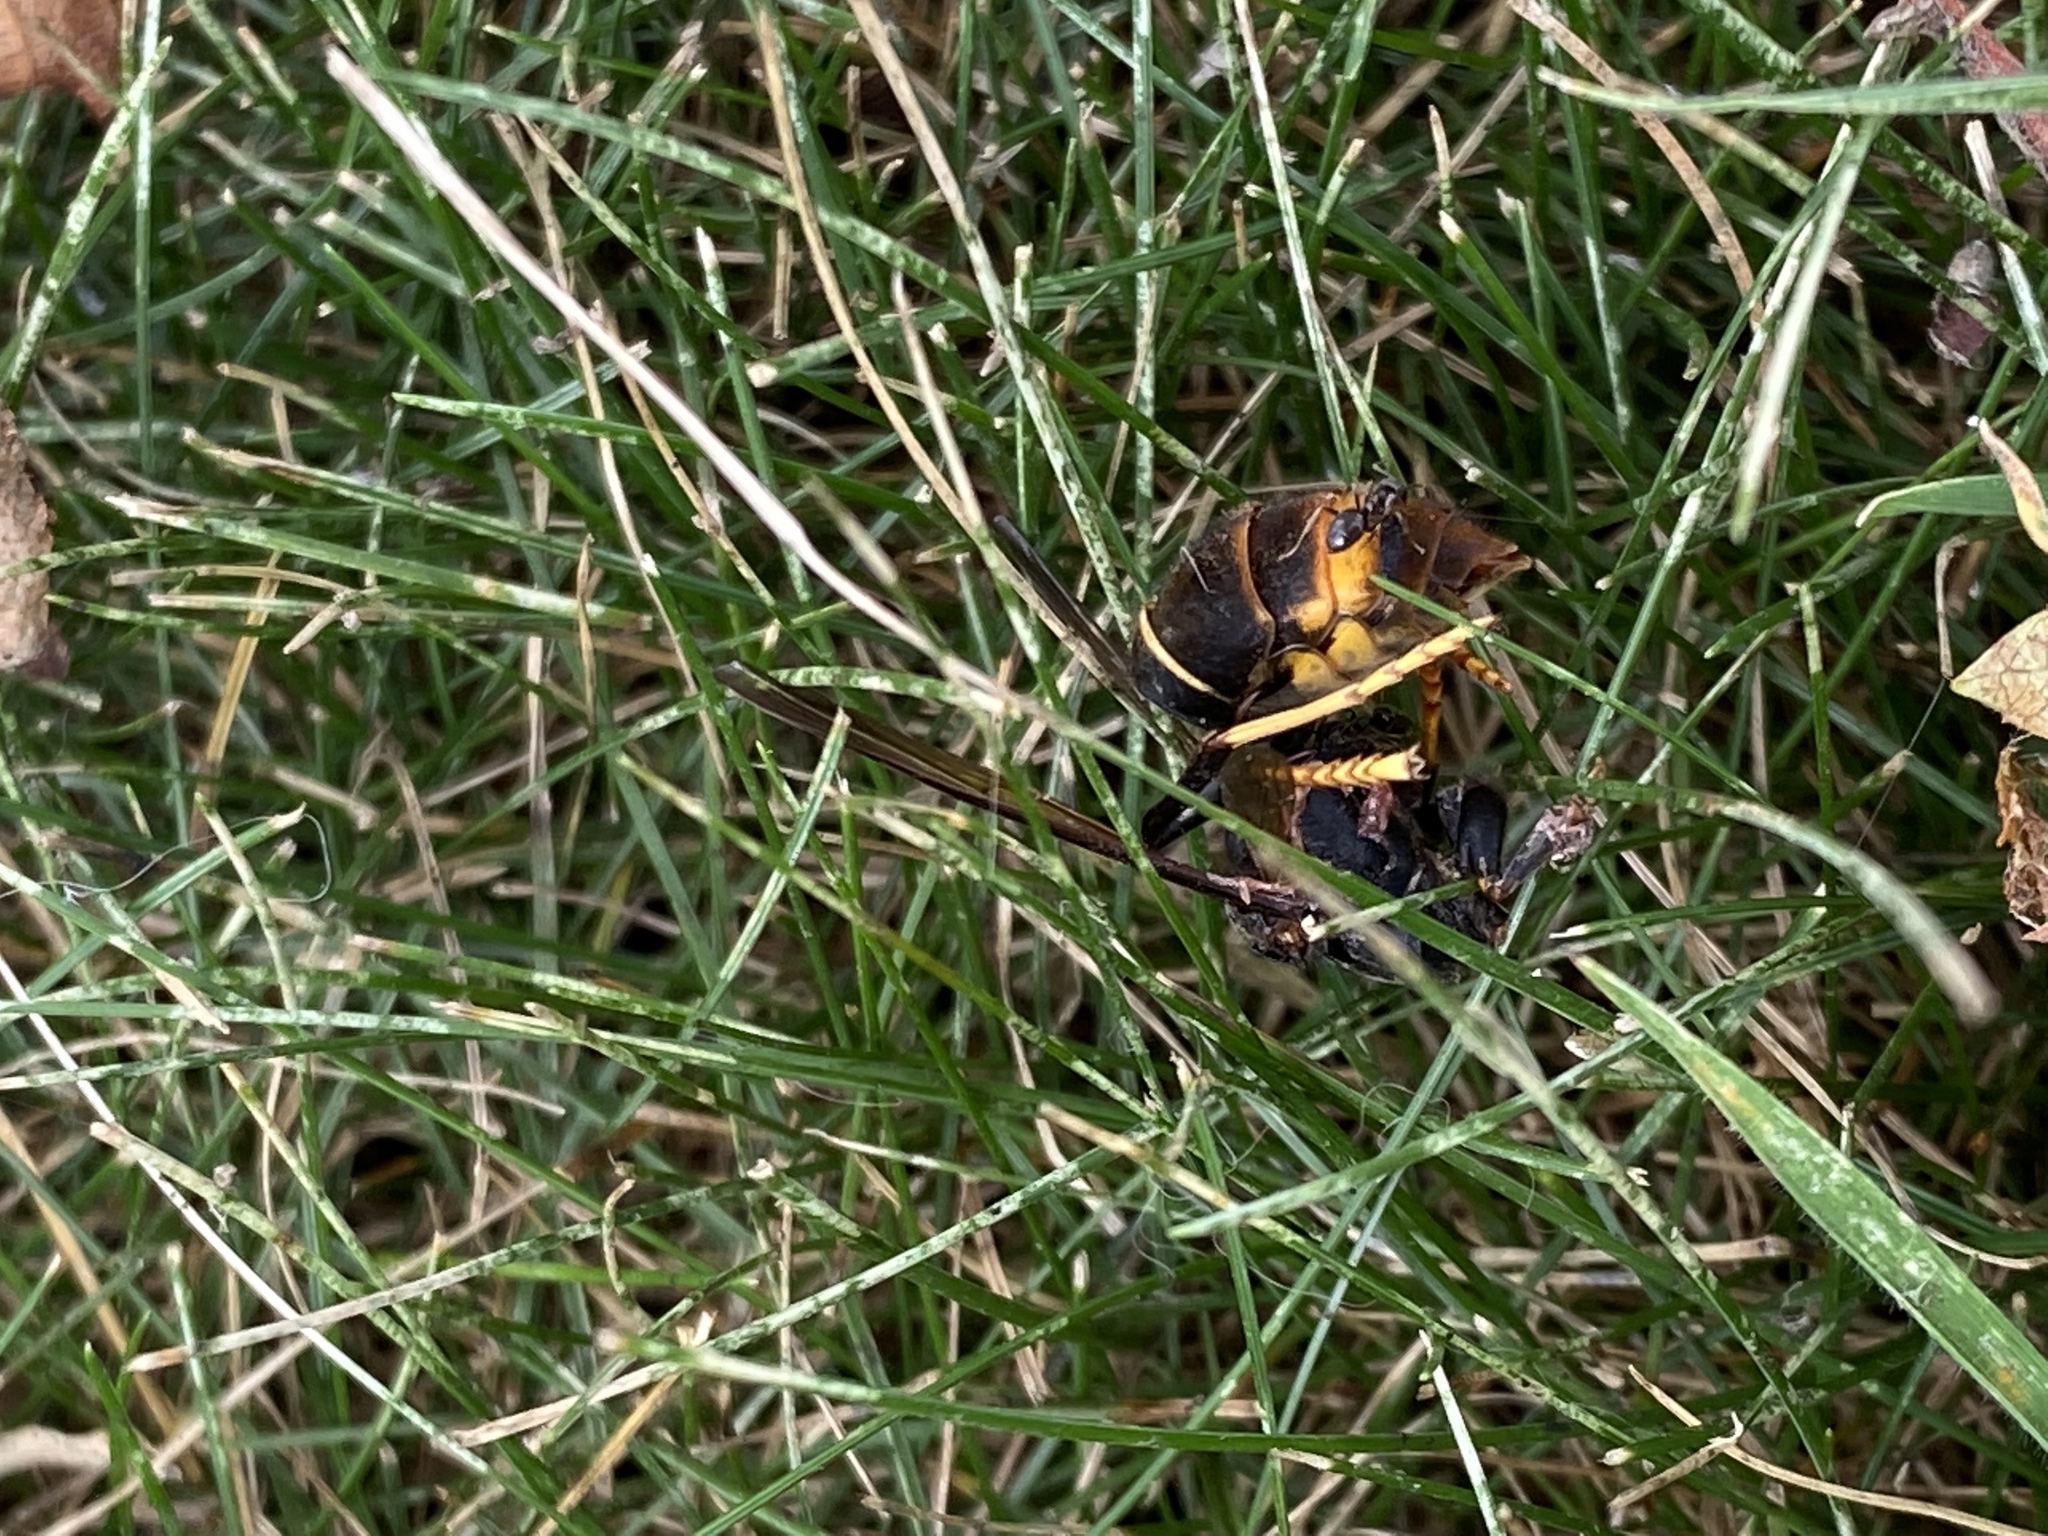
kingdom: Animalia
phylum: Arthropoda
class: Insecta
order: Hymenoptera
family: Vespidae
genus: Vespa
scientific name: Vespa velutina
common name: Asian hornet
